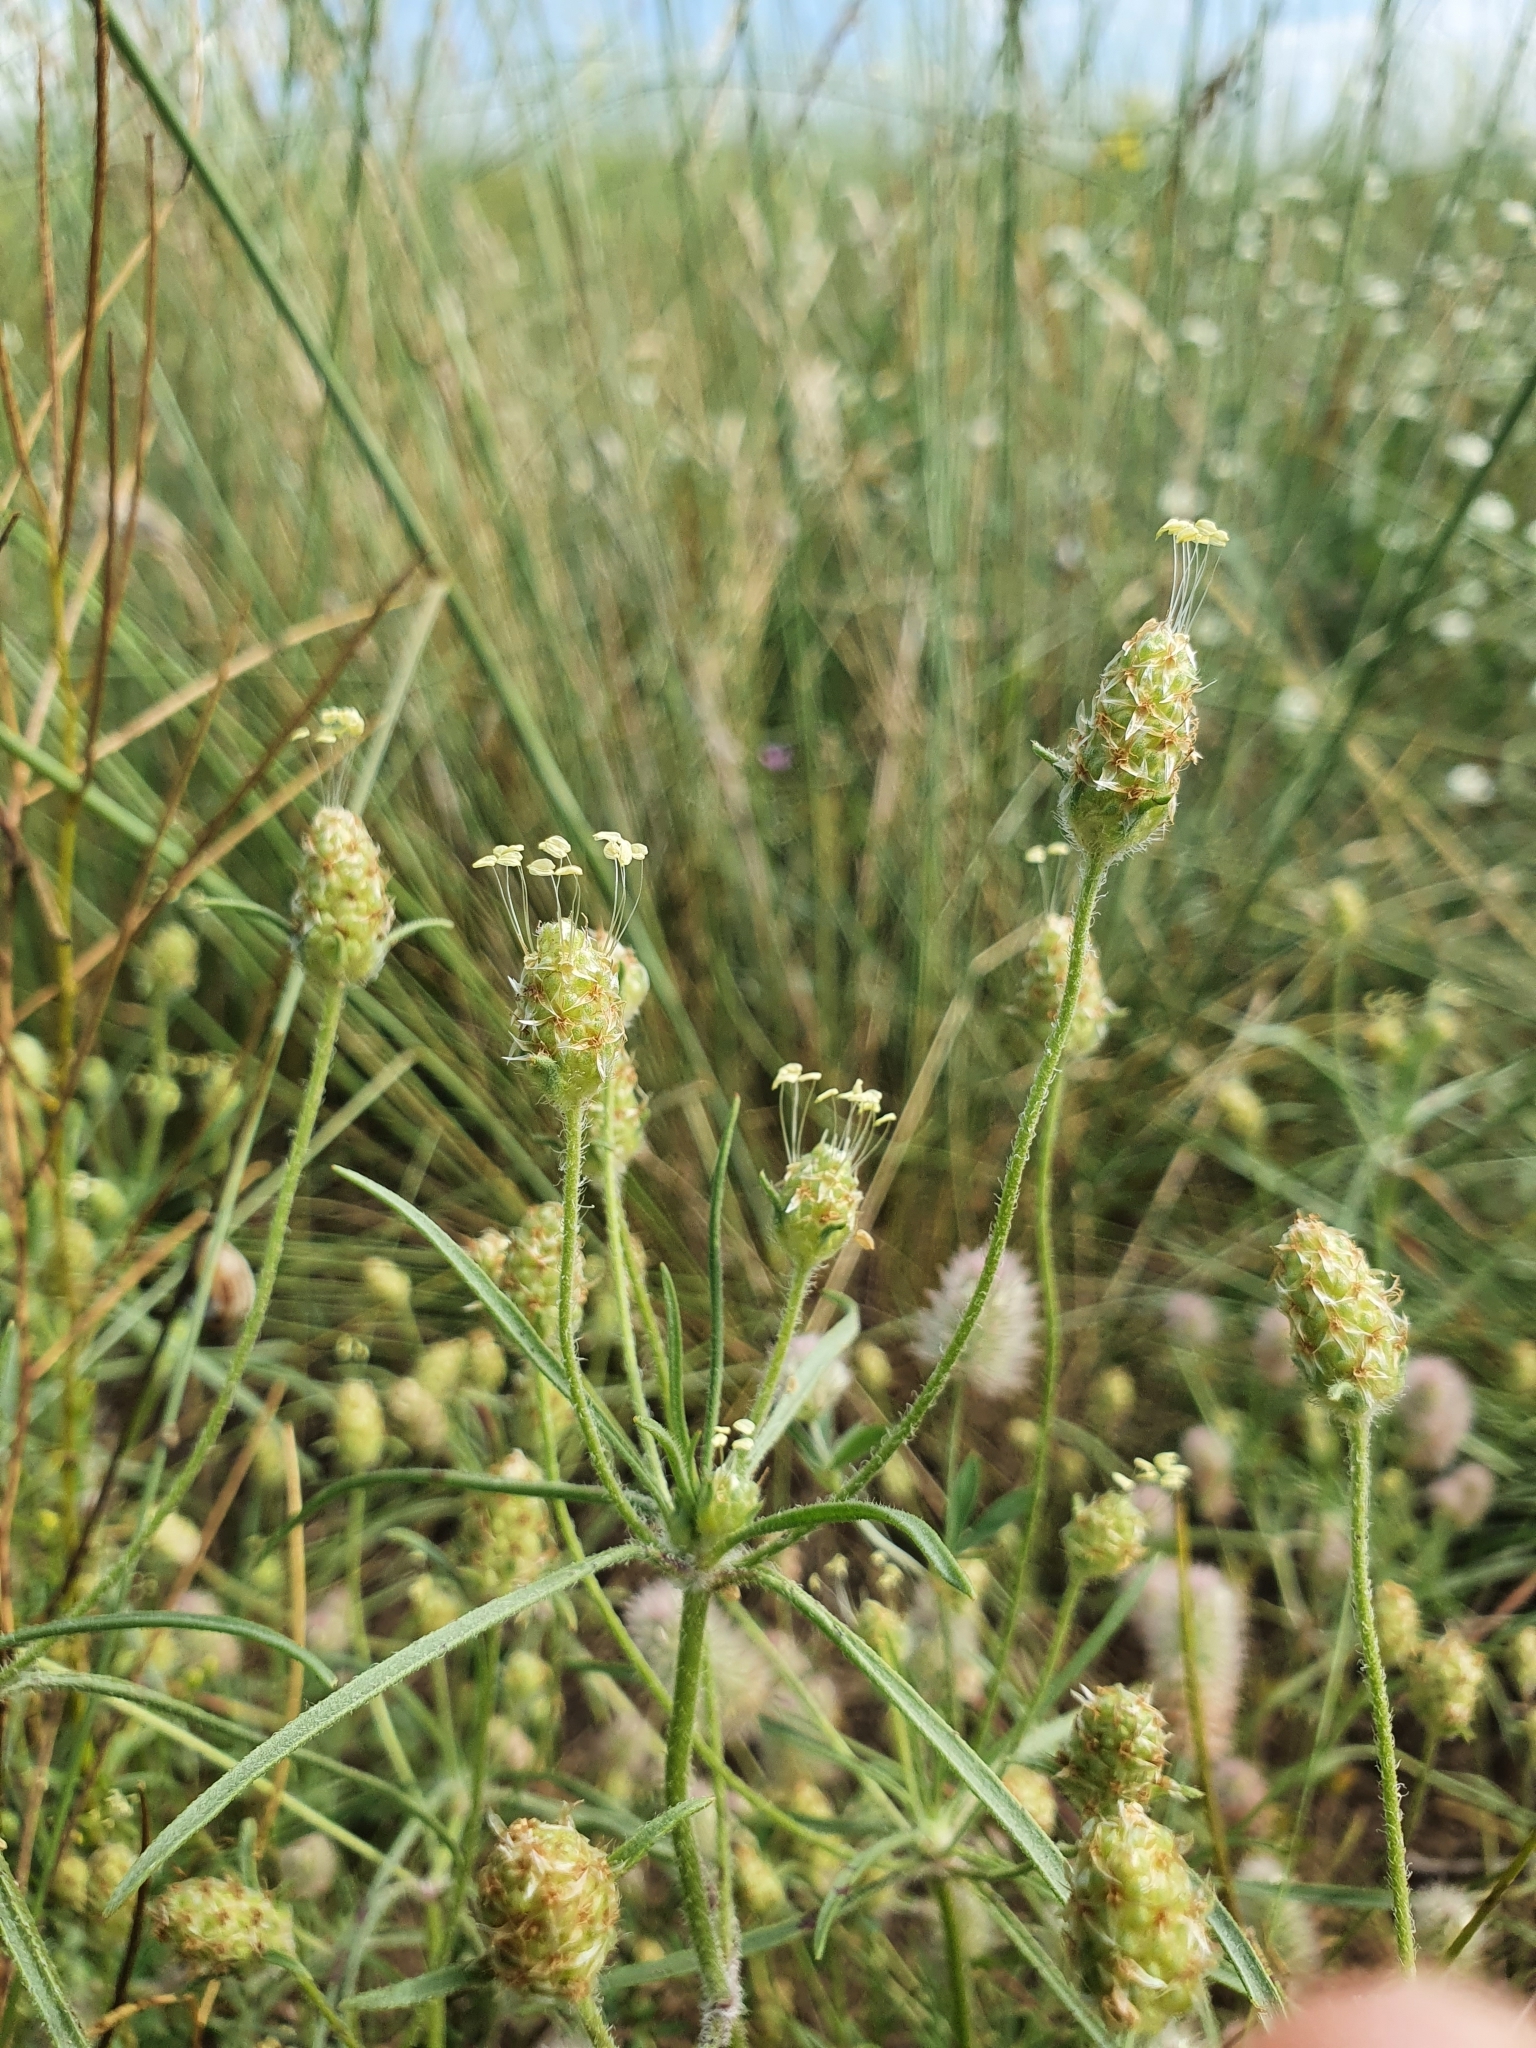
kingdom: Plantae
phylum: Tracheophyta
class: Magnoliopsida
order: Lamiales
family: Plantaginaceae
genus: Plantago
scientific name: Plantago arenaria
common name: Branched plantain
